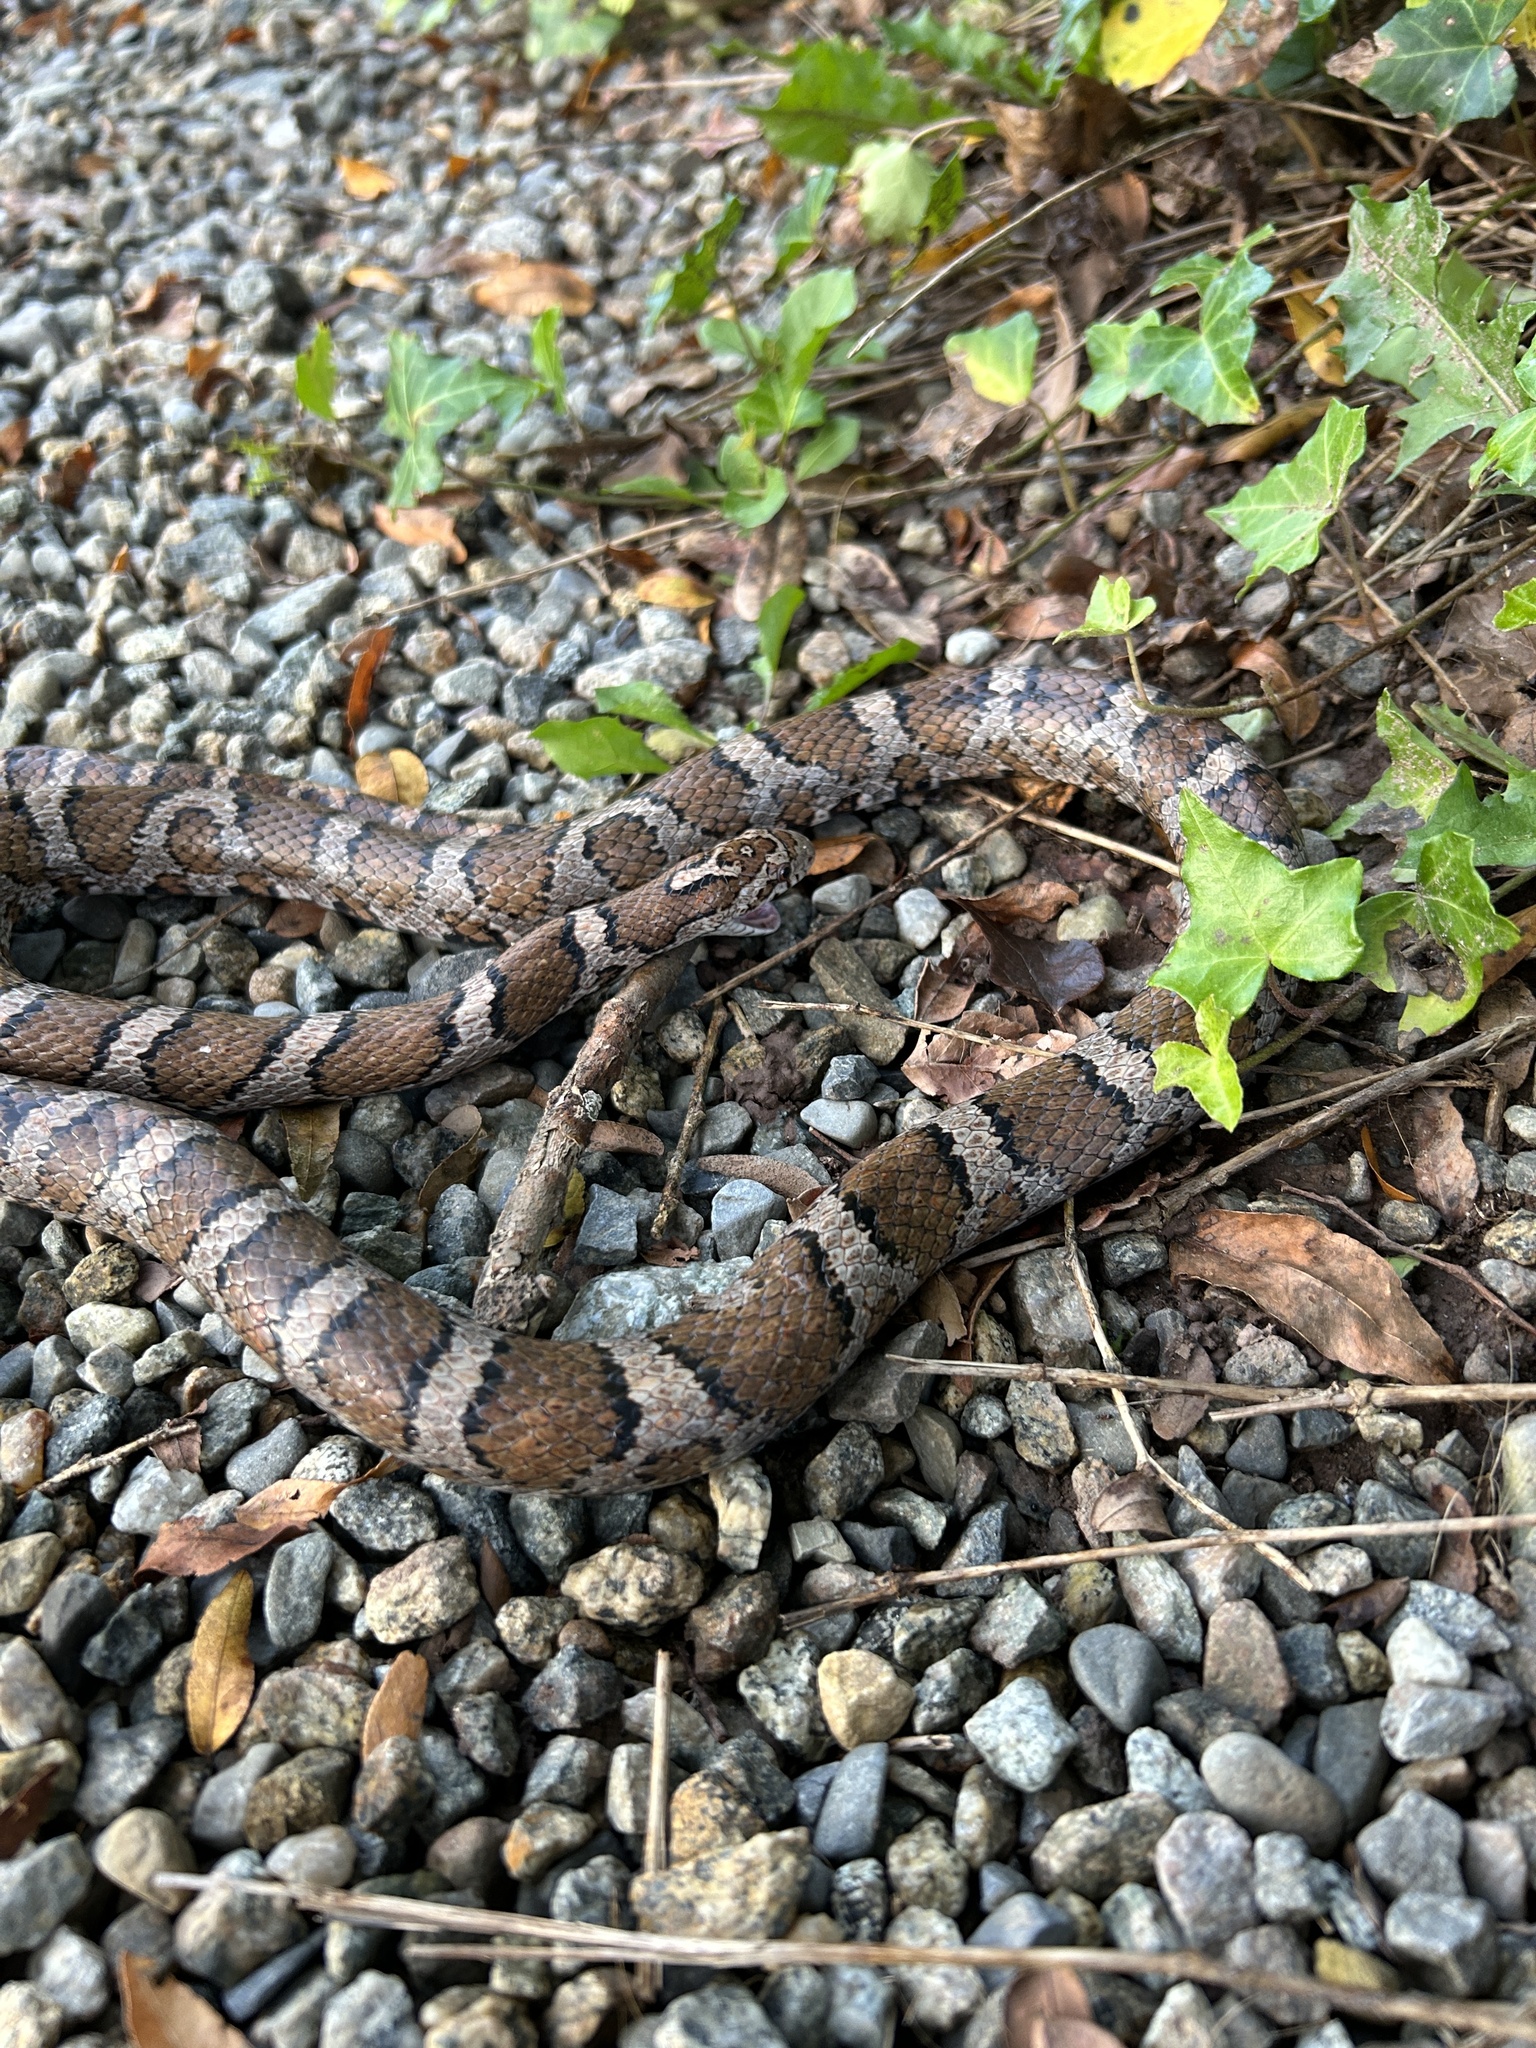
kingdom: Animalia
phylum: Chordata
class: Squamata
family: Colubridae
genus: Lampropeltis
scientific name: Lampropeltis triangulum
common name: Eastern milksnake
